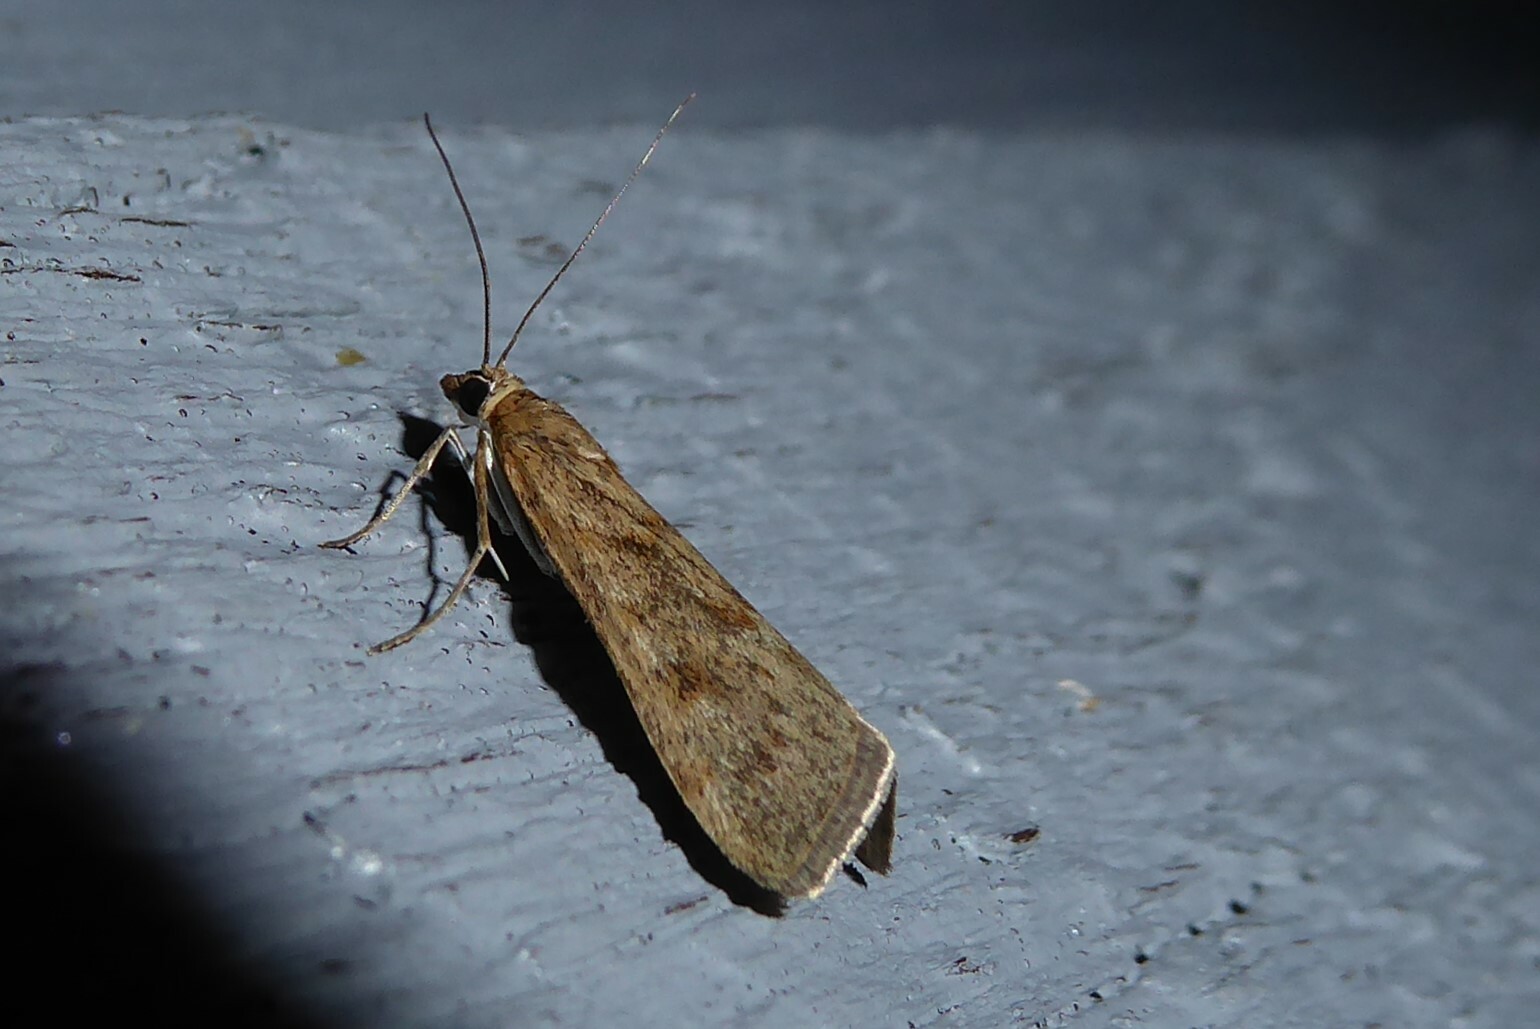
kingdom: Animalia
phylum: Arthropoda
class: Insecta
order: Lepidoptera
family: Crambidae
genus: Achyra
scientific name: Achyra affinitalis
